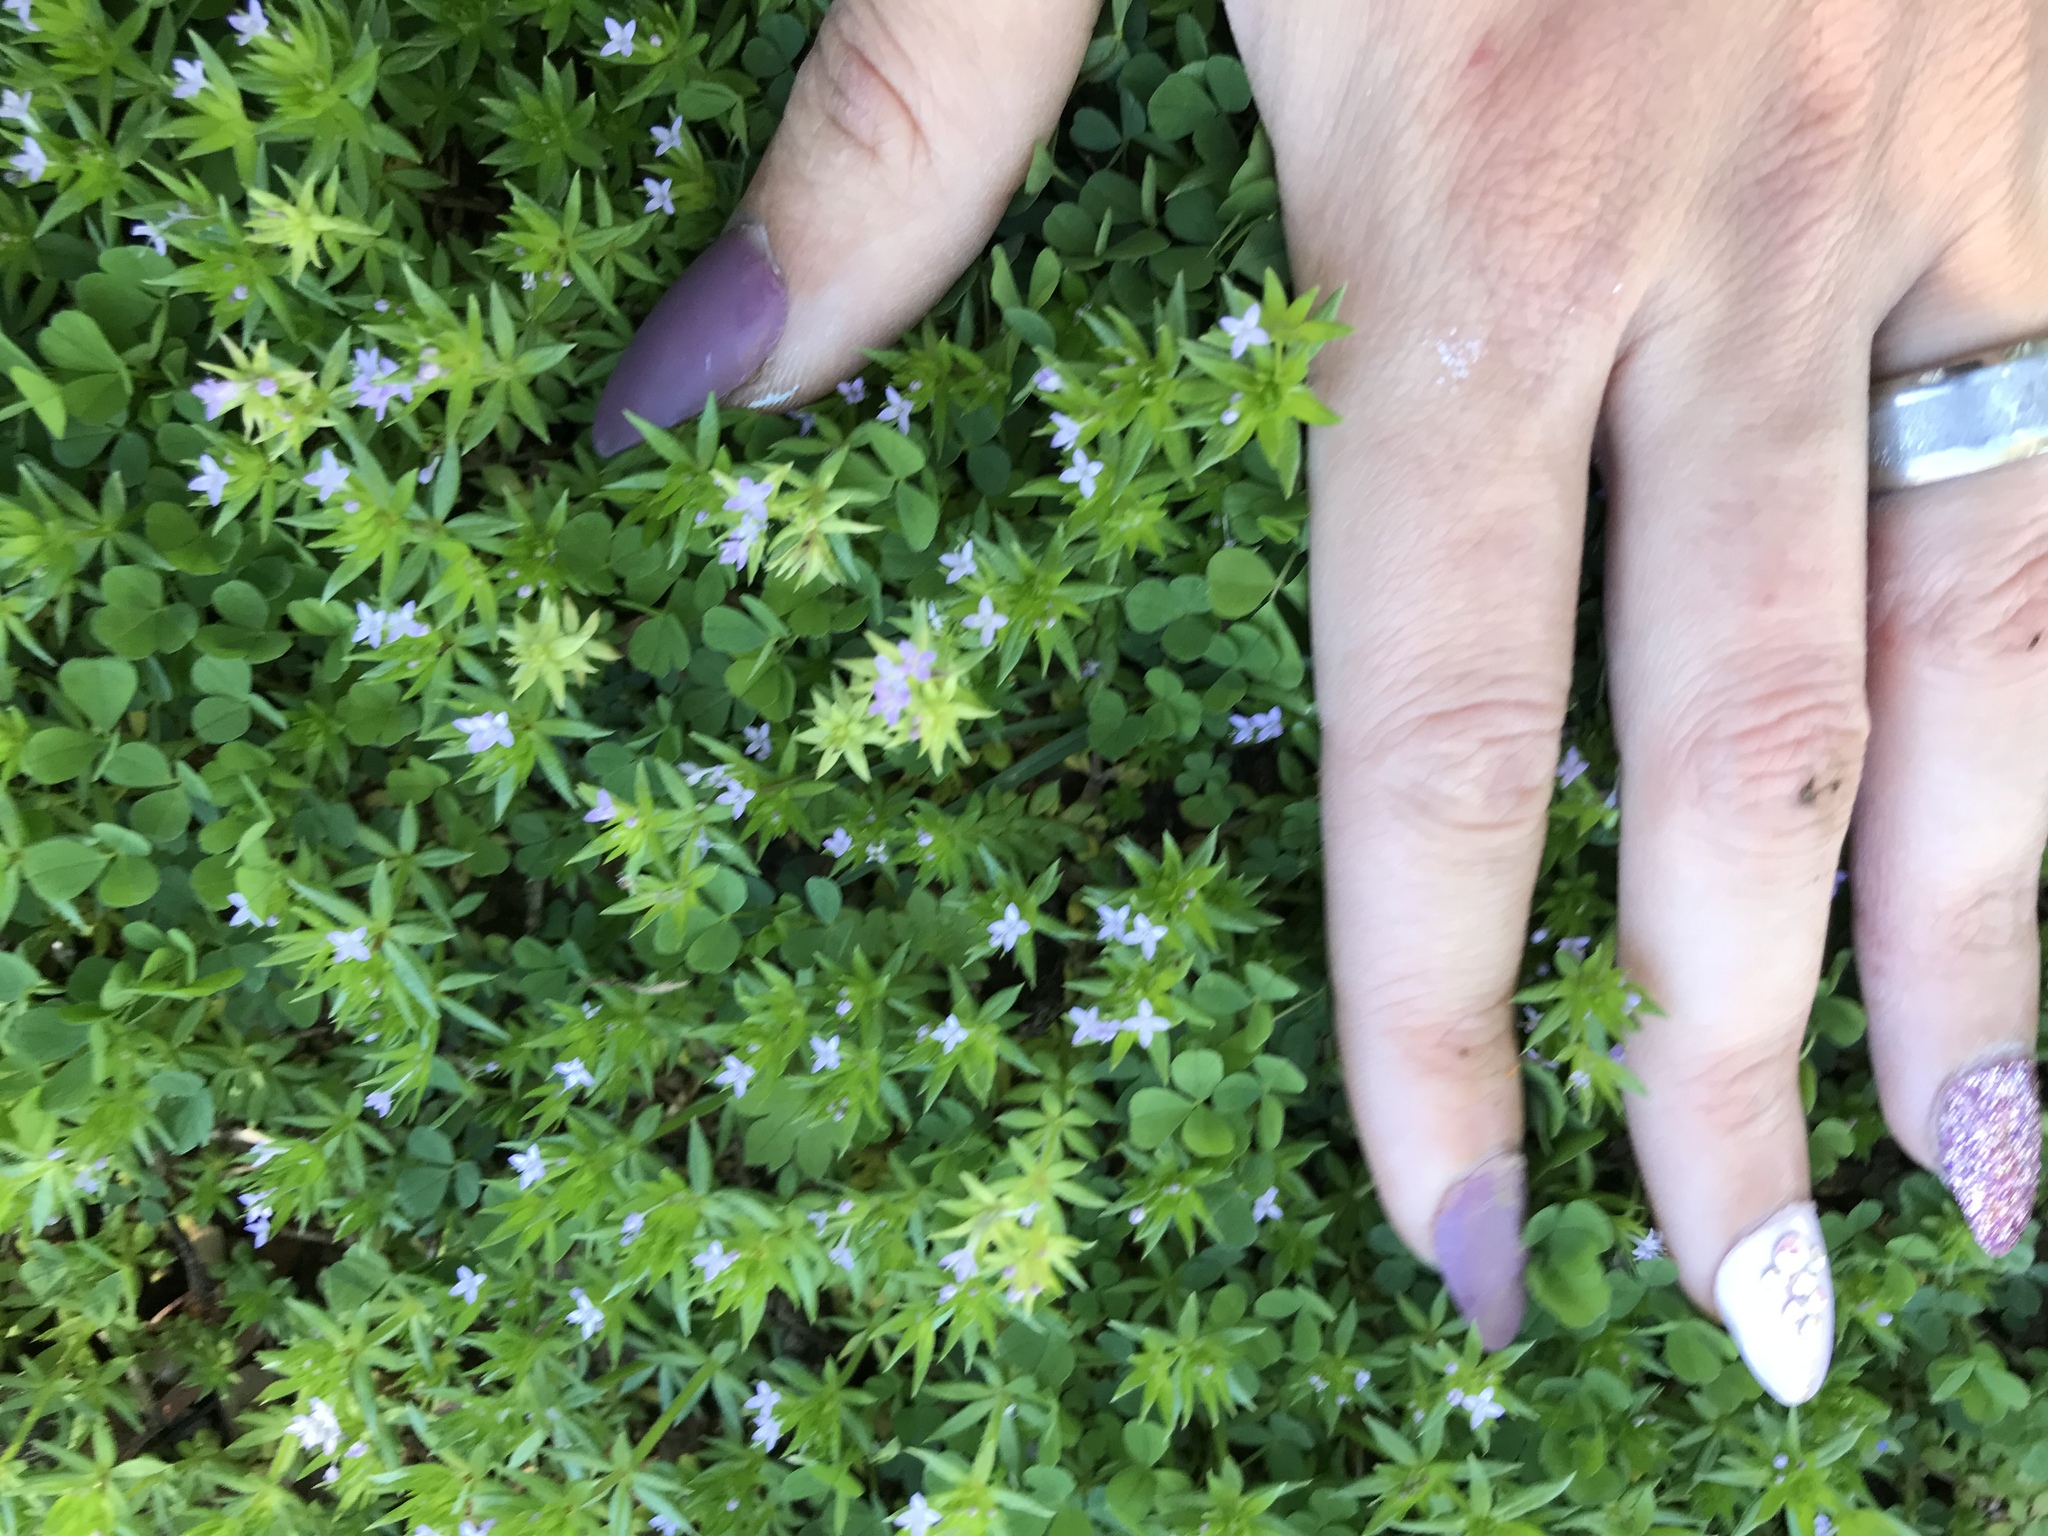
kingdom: Plantae
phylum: Tracheophyta
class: Magnoliopsida
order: Gentianales
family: Rubiaceae
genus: Sherardia
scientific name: Sherardia arvensis
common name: Field madder
